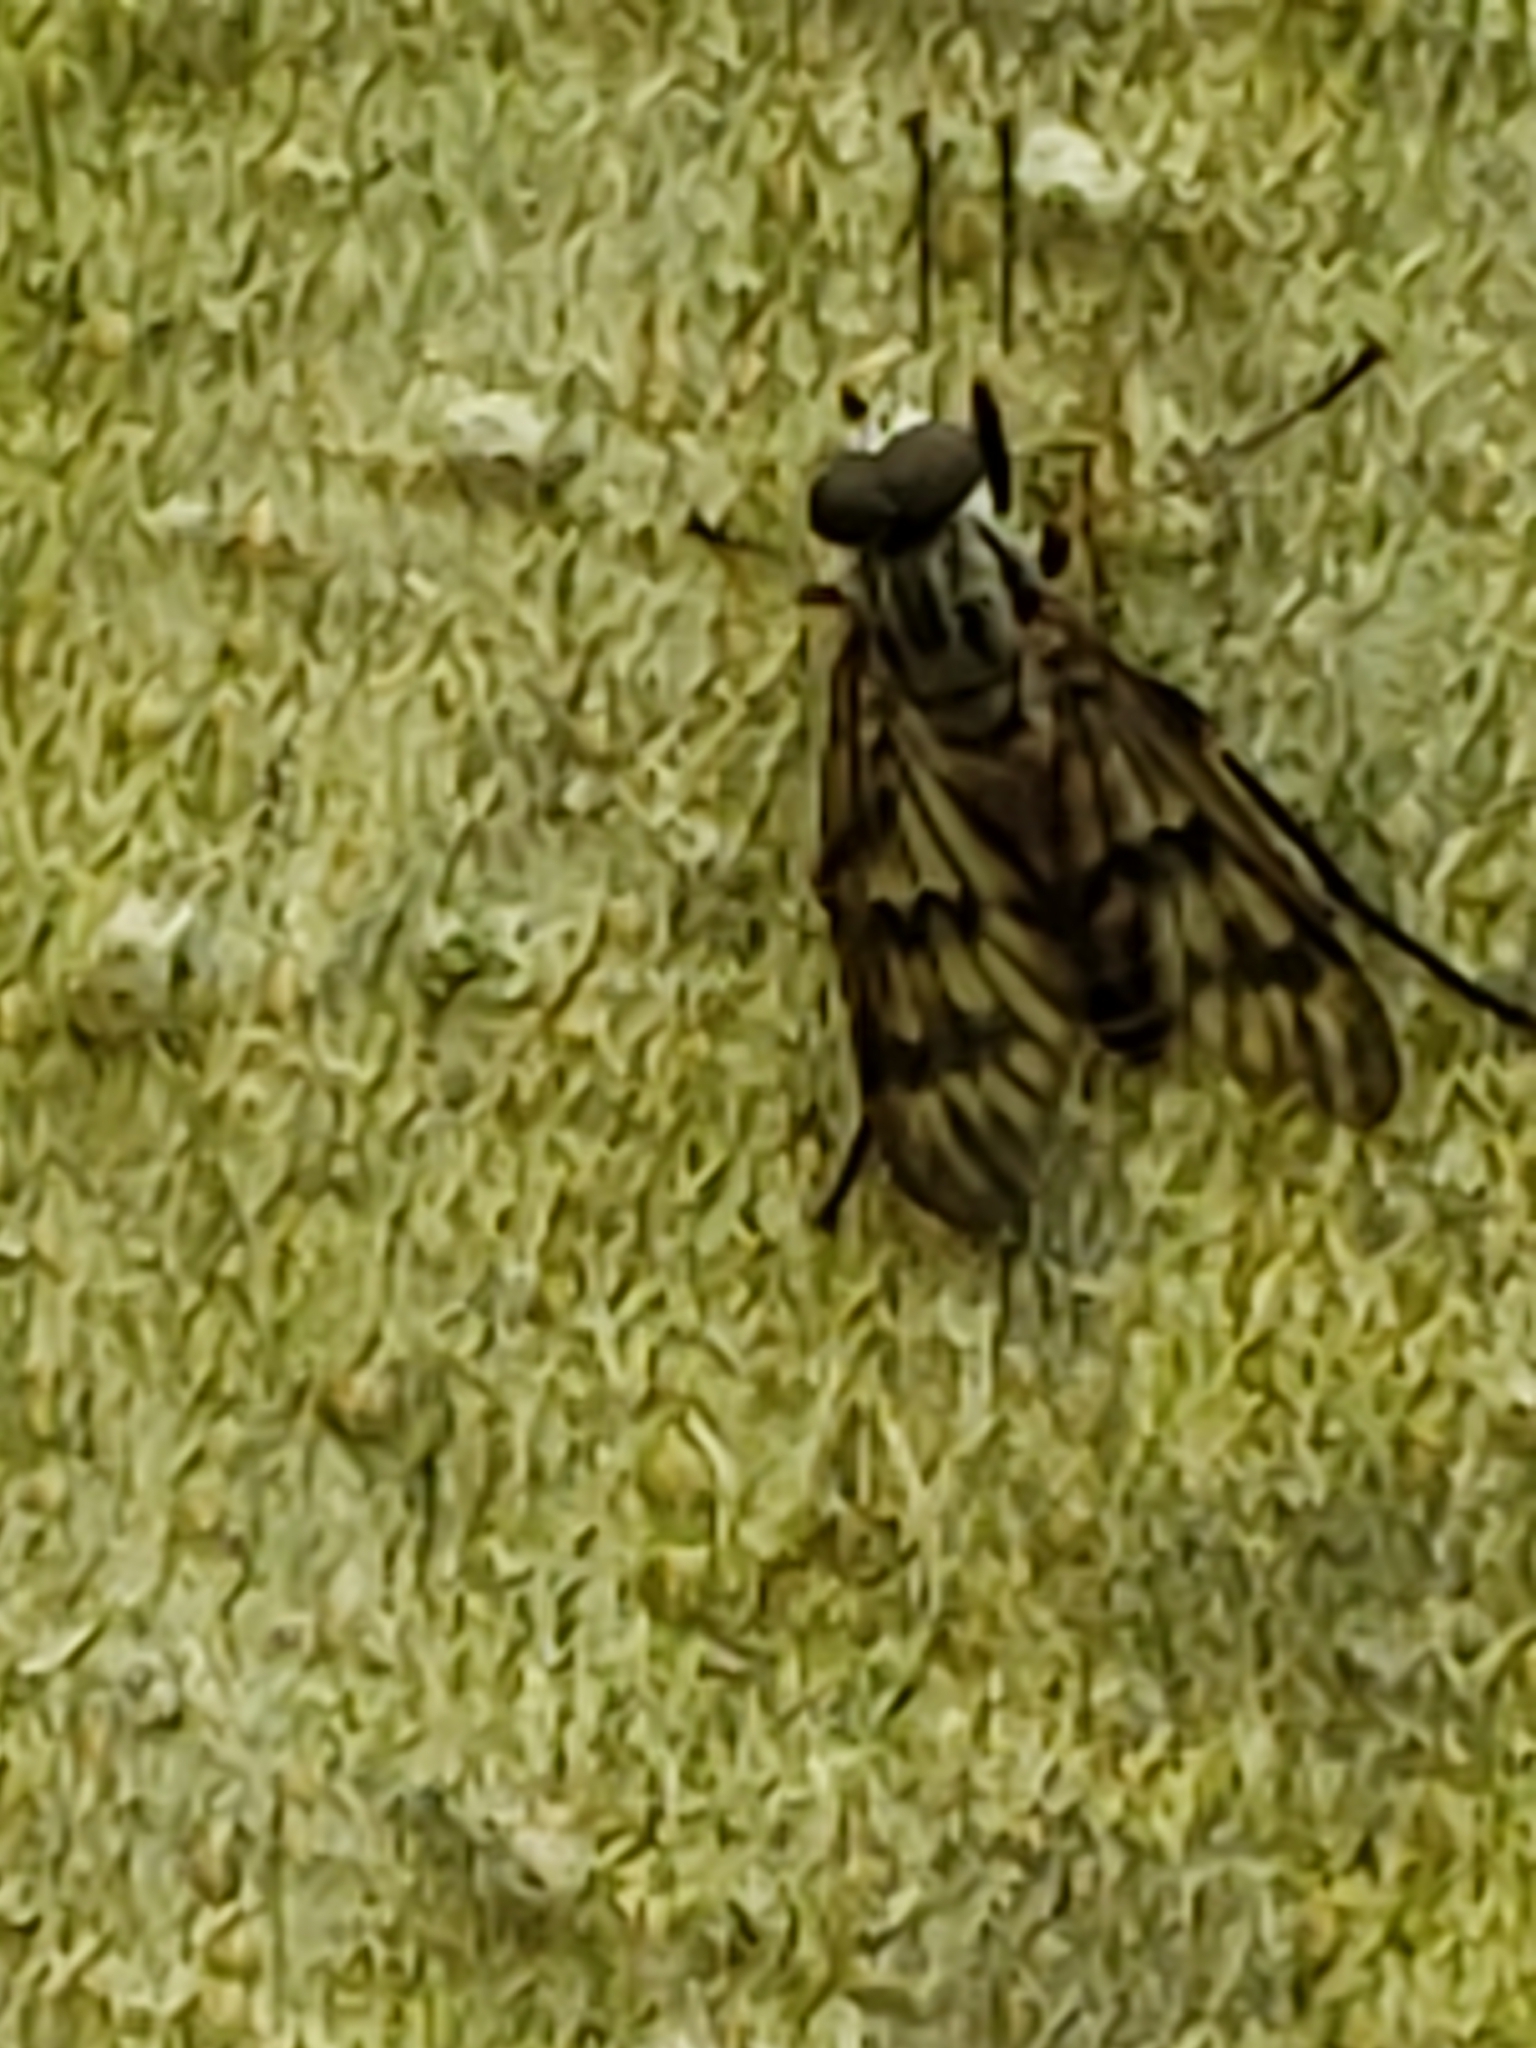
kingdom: Animalia
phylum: Arthropoda
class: Insecta
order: Diptera
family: Rhagionidae
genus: Rhagio
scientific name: Rhagio mystaceus
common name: Common snipe fly
